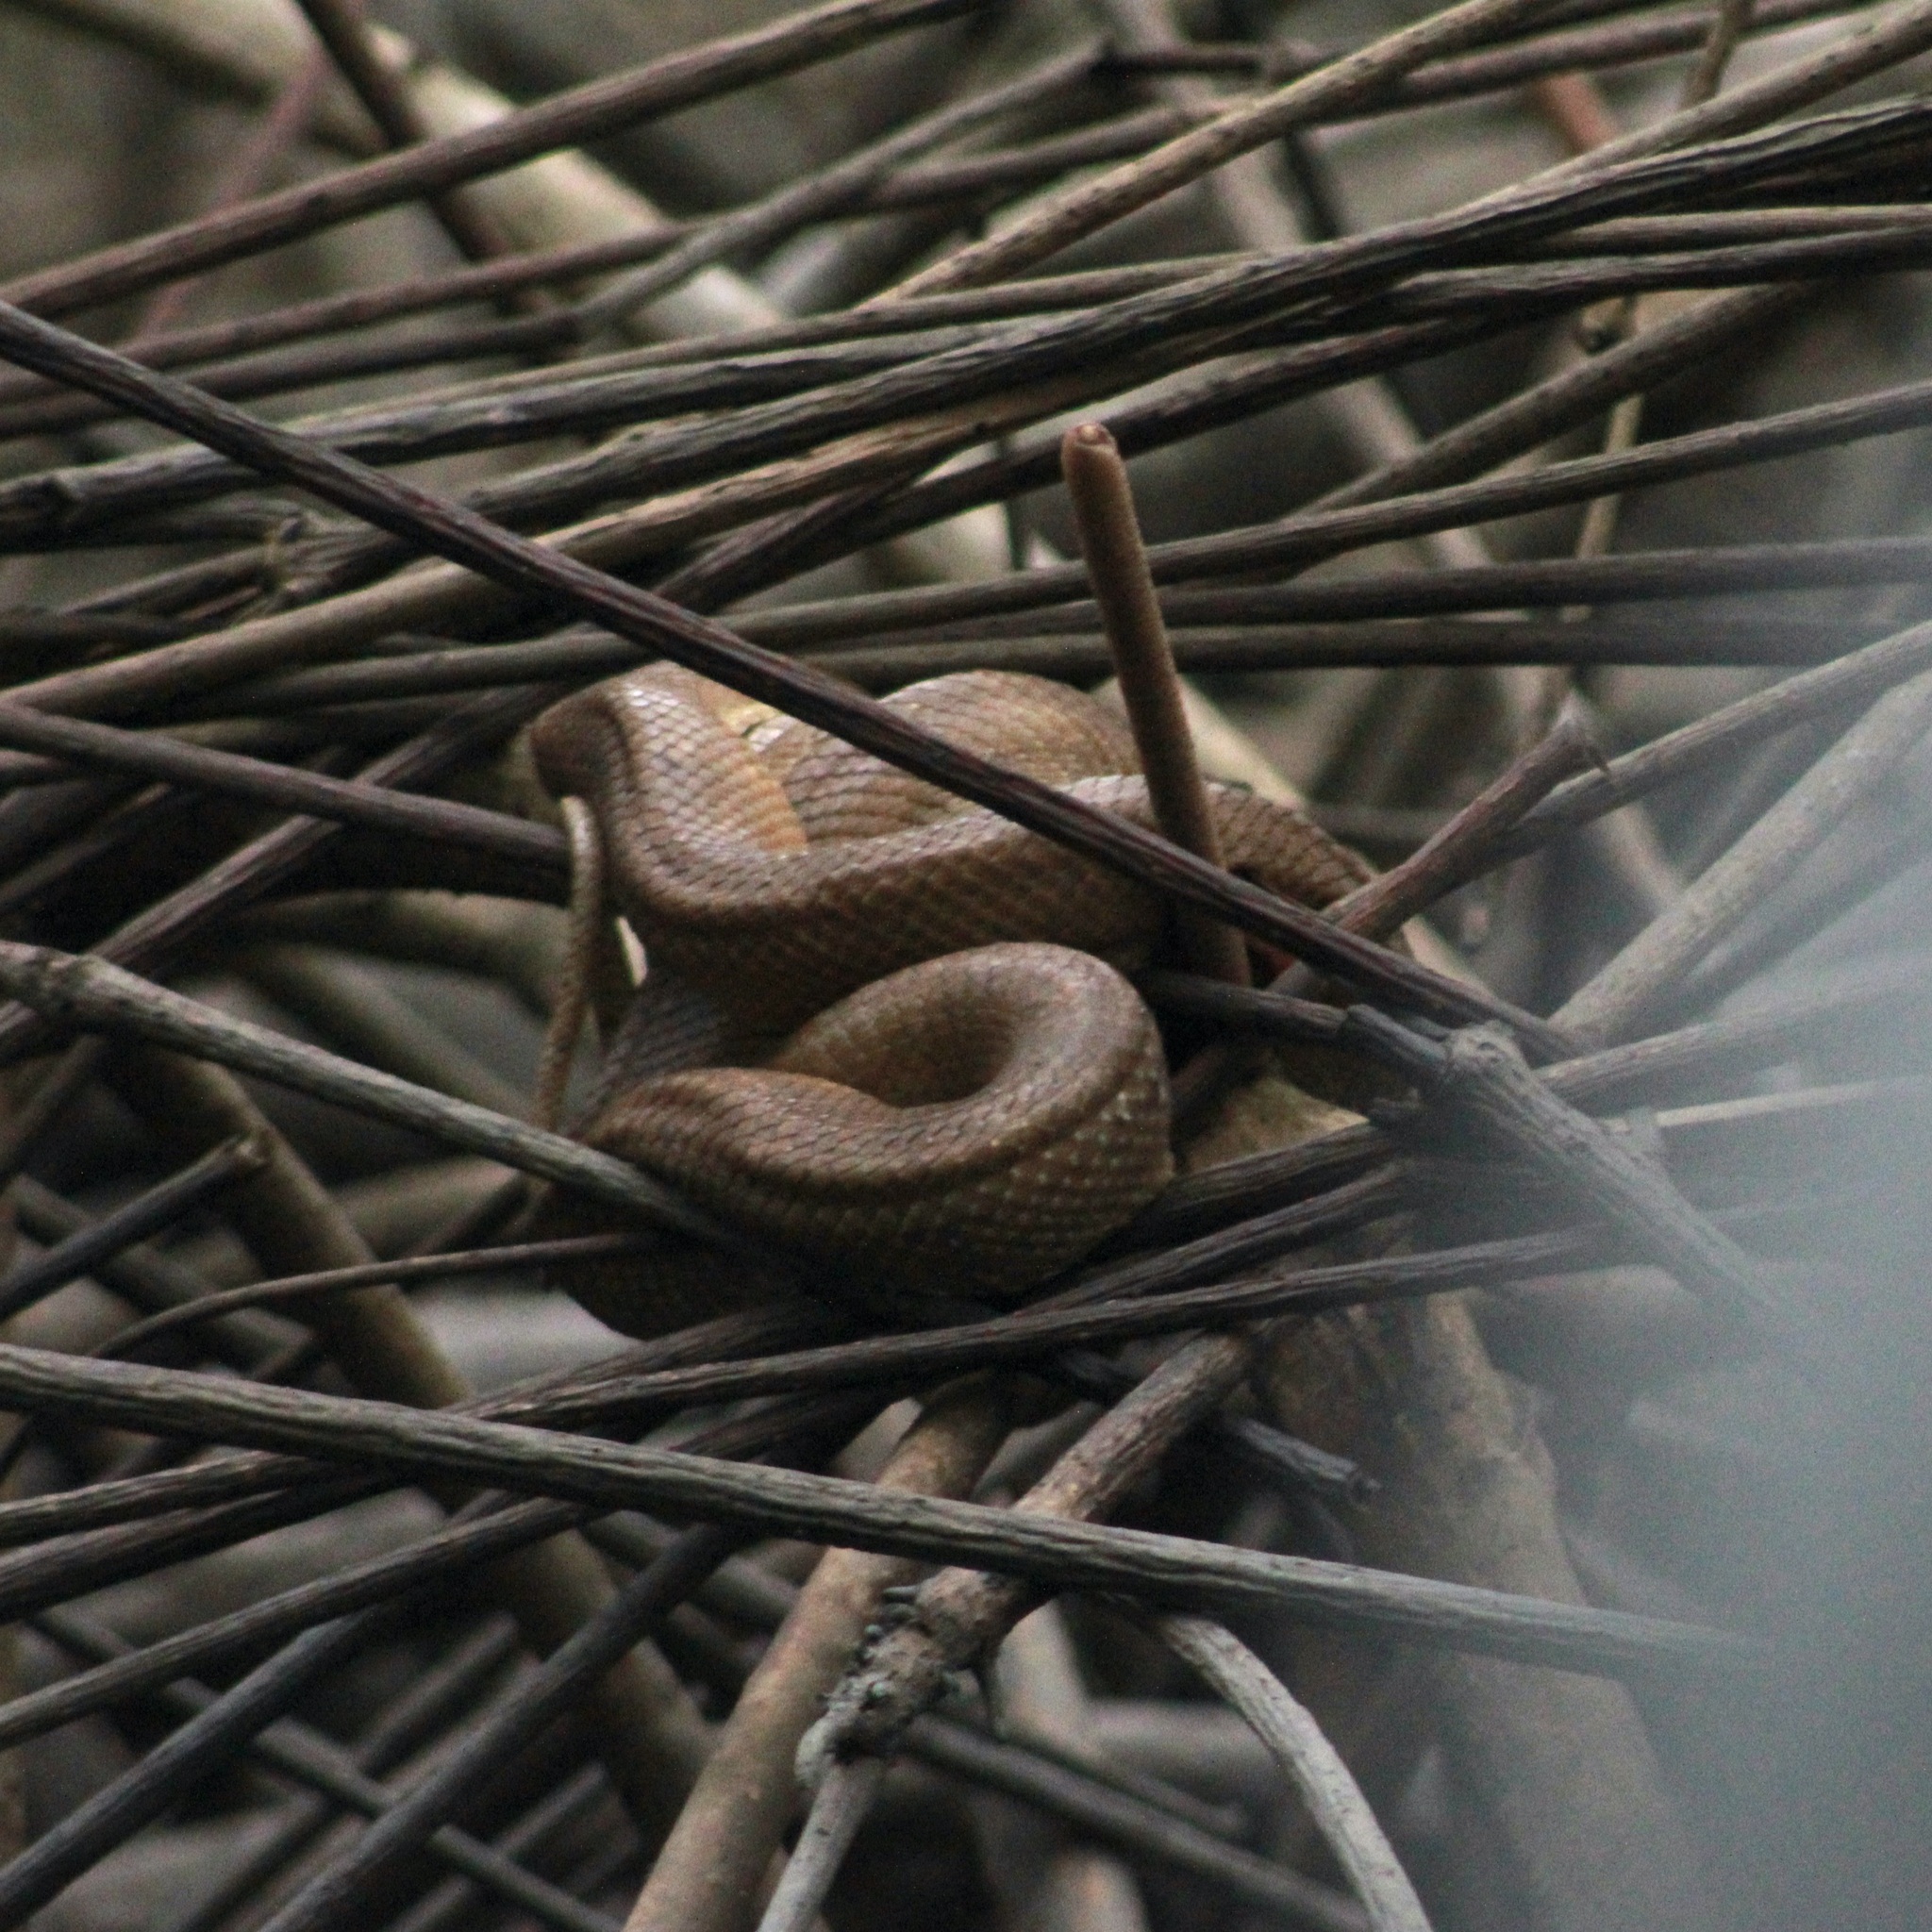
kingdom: Animalia
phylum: Chordata
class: Squamata
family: Boidae
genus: Corallus
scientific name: Corallus ruschenbergerii
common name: Dormilona
